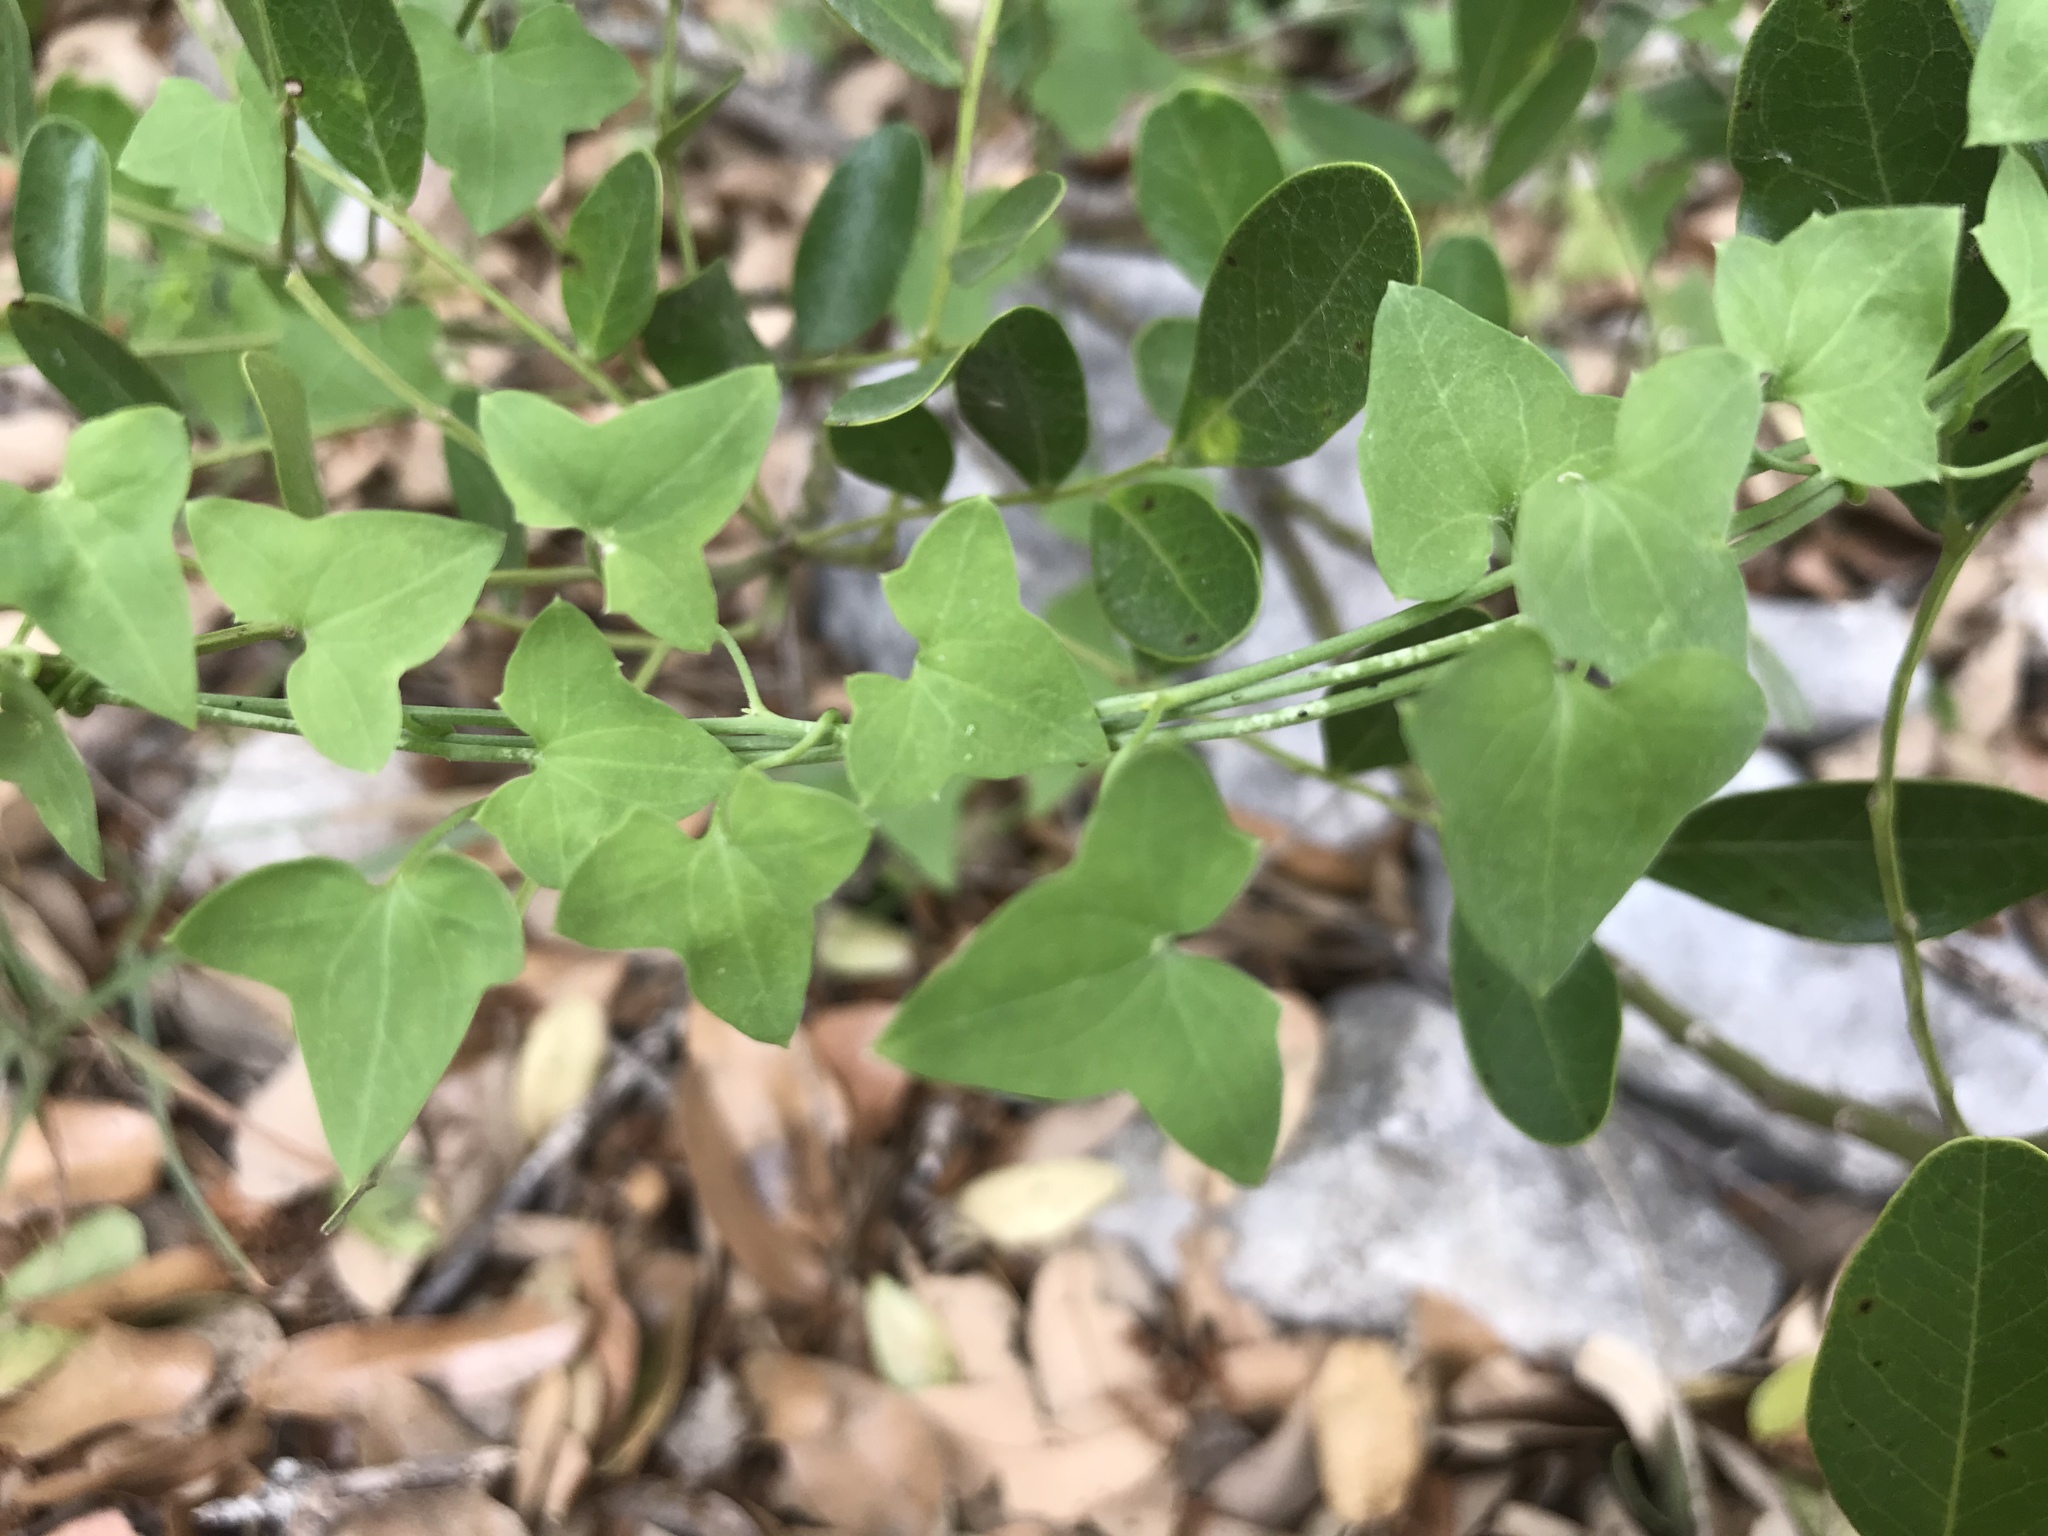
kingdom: Plantae
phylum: Tracheophyta
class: Magnoliopsida
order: Lamiales
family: Plantaginaceae
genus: Maurandella
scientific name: Maurandella antirrhiniflora
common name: Violet twining-snapdragon
